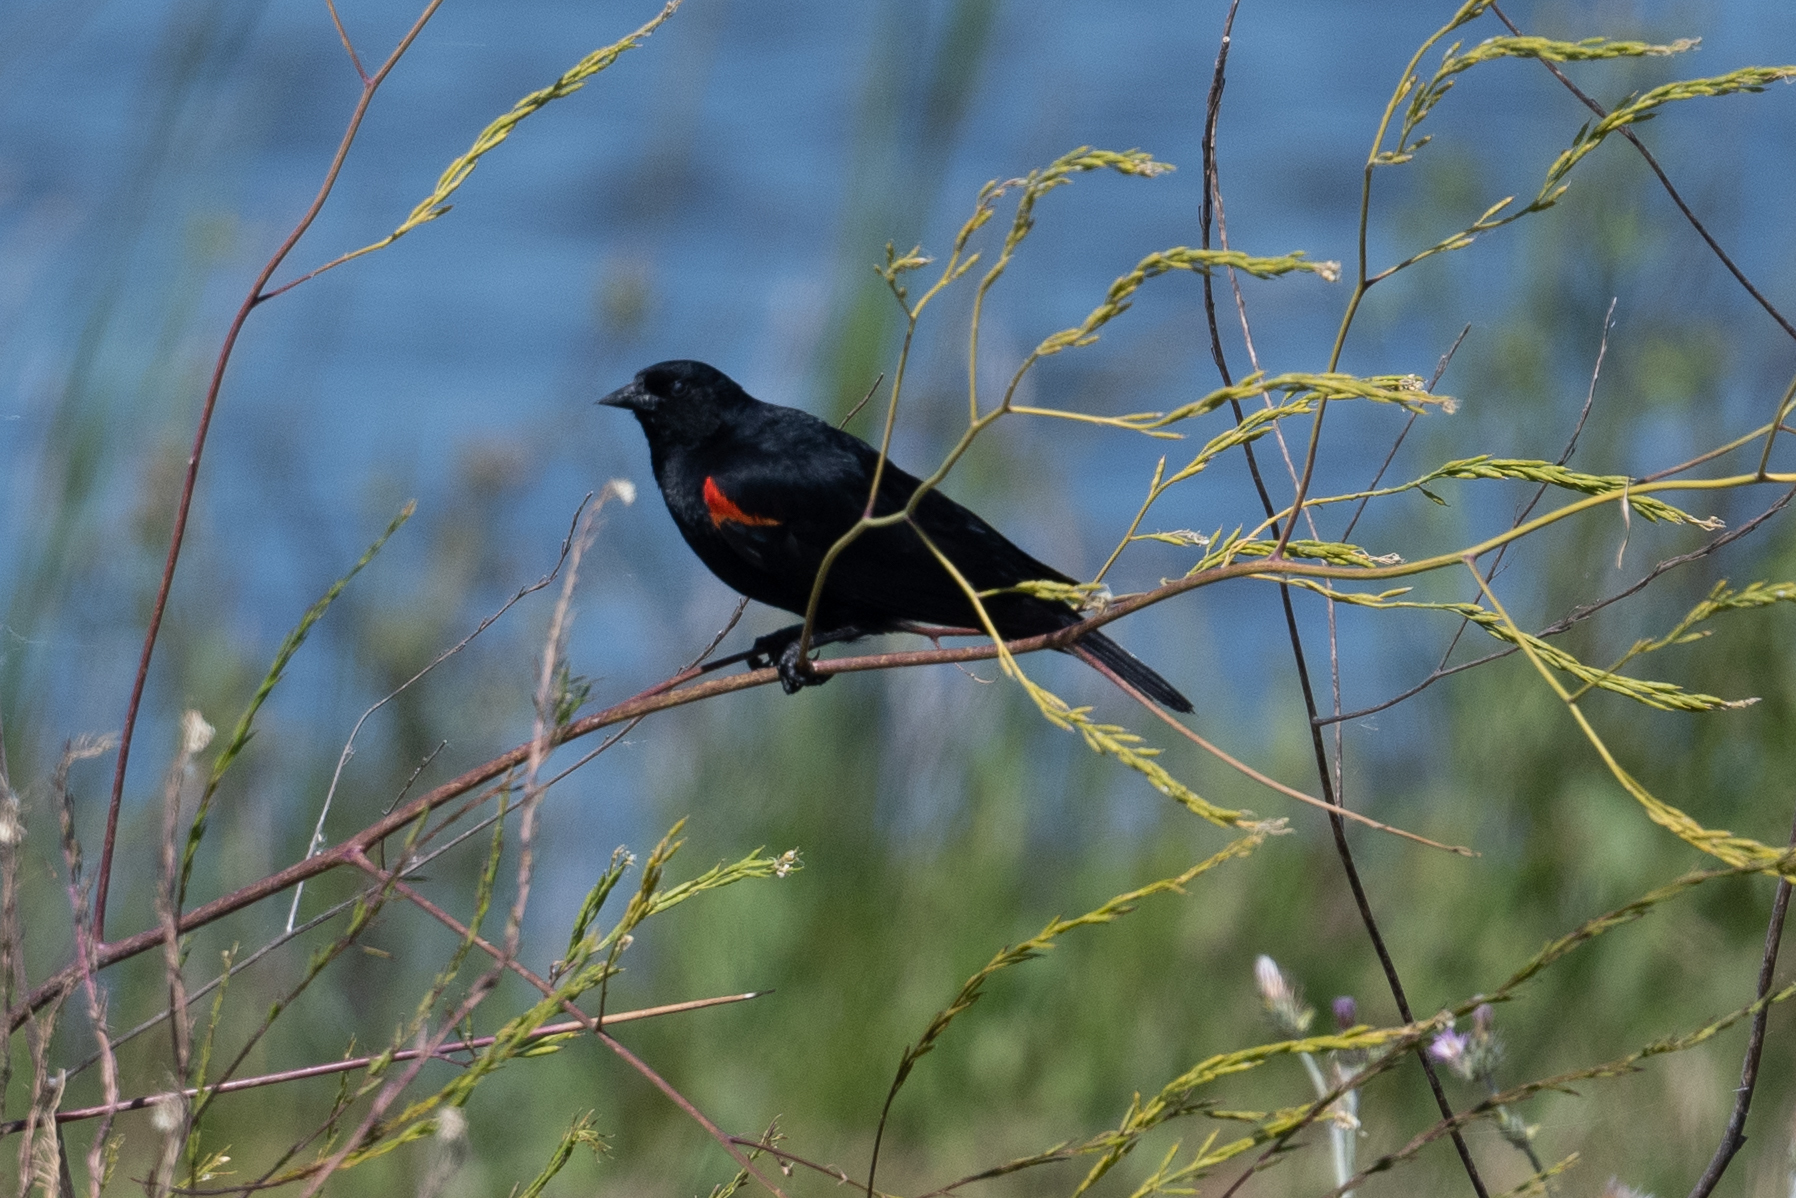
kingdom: Animalia
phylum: Chordata
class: Aves
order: Passeriformes
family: Icteridae
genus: Agelaius
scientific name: Agelaius phoeniceus
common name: Red-winged blackbird
